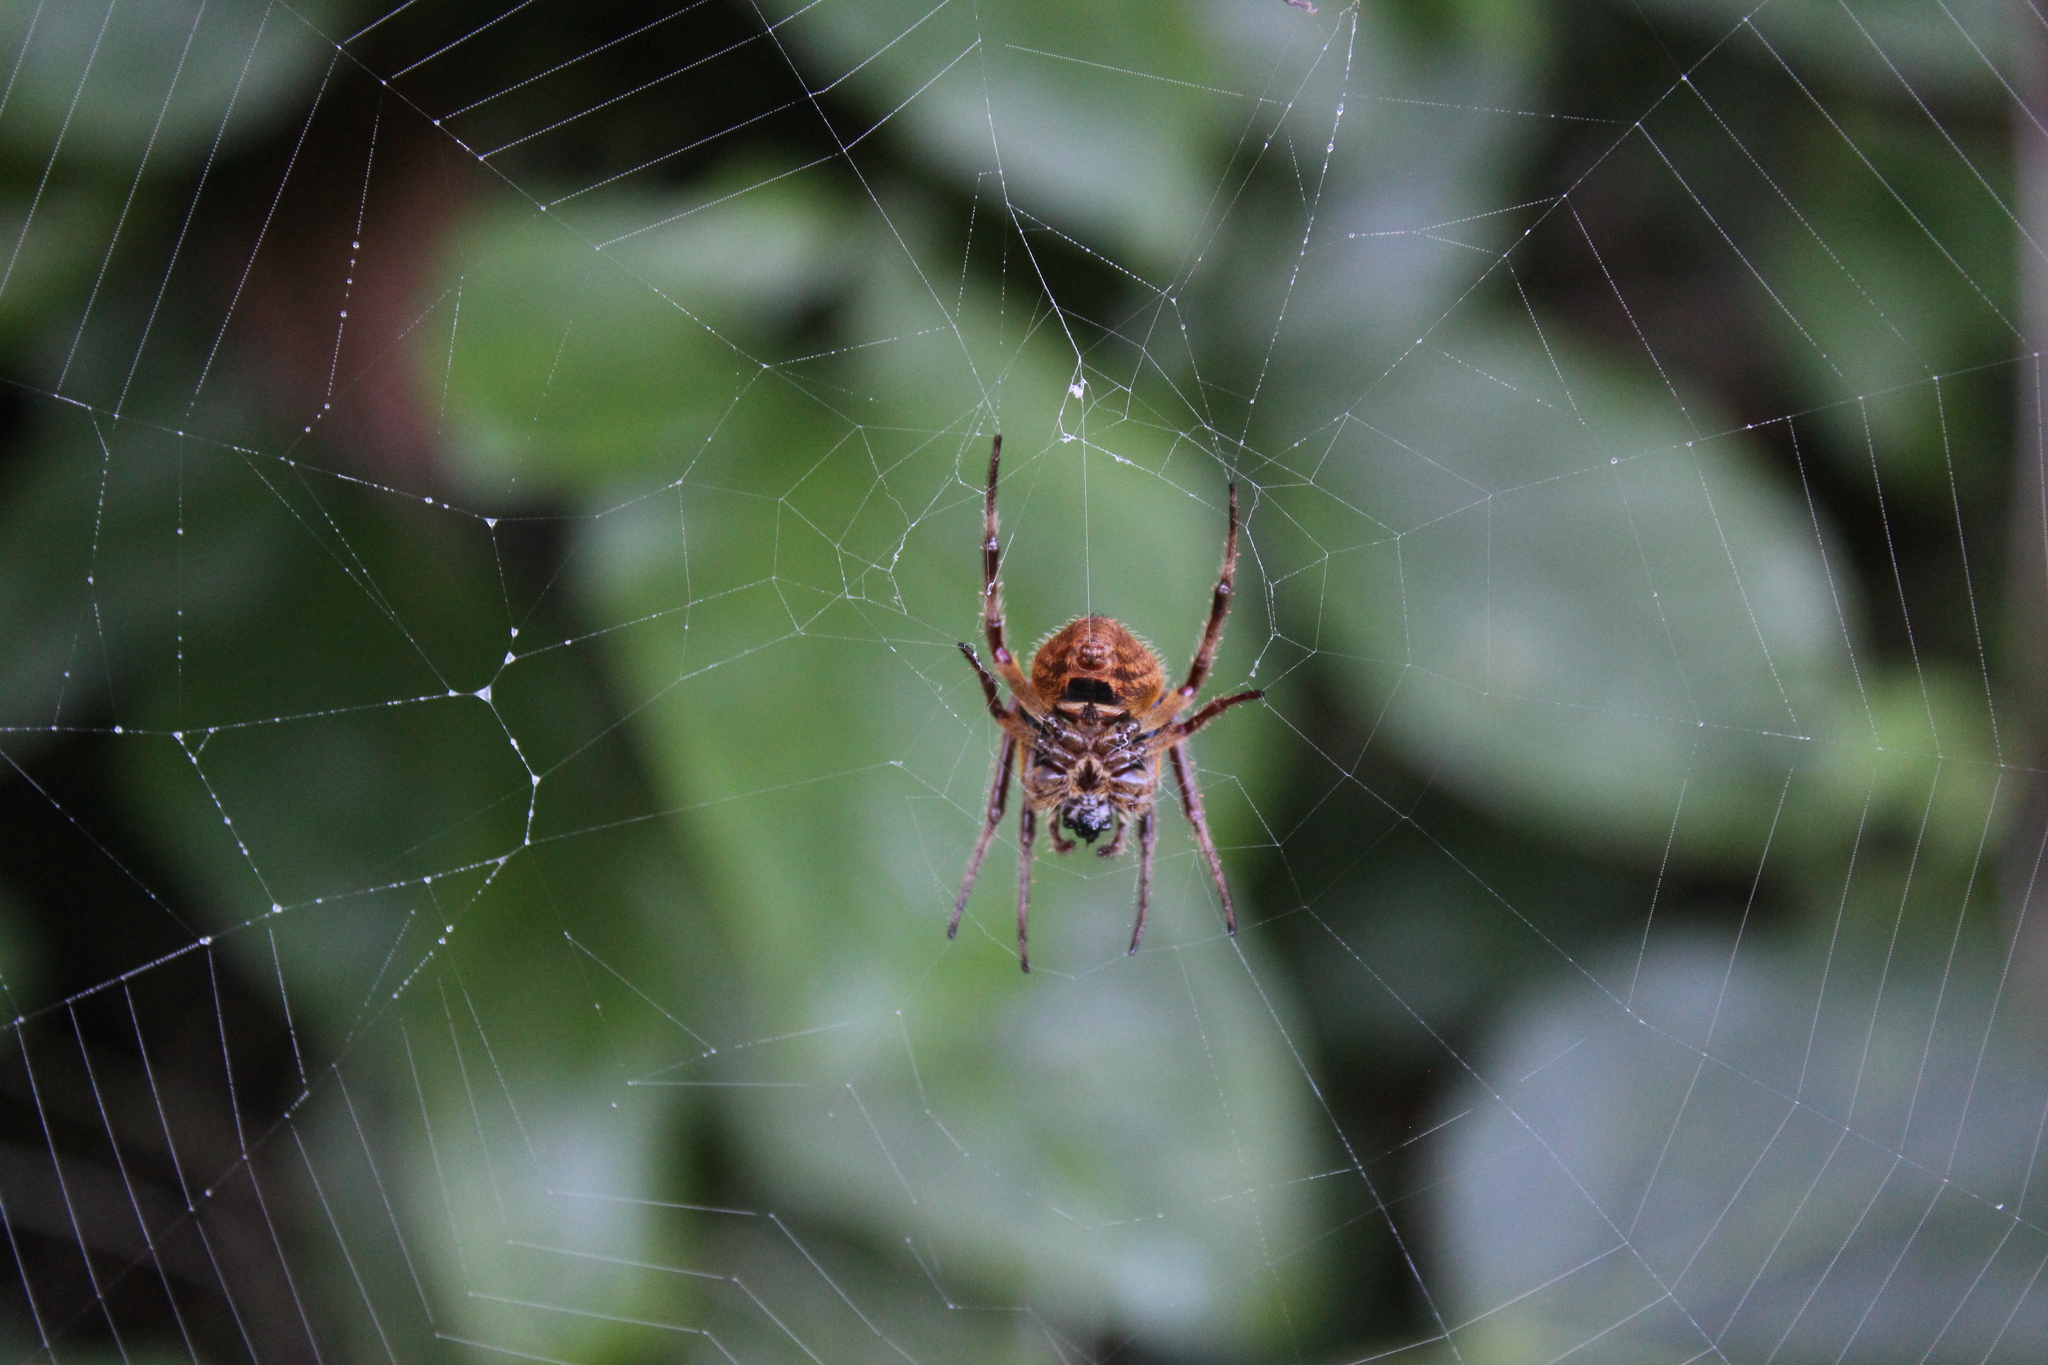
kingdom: Animalia
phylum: Arthropoda
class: Arachnida
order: Araneae
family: Araneidae
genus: Eriophora
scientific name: Eriophora ravilla
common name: Orb weavers
